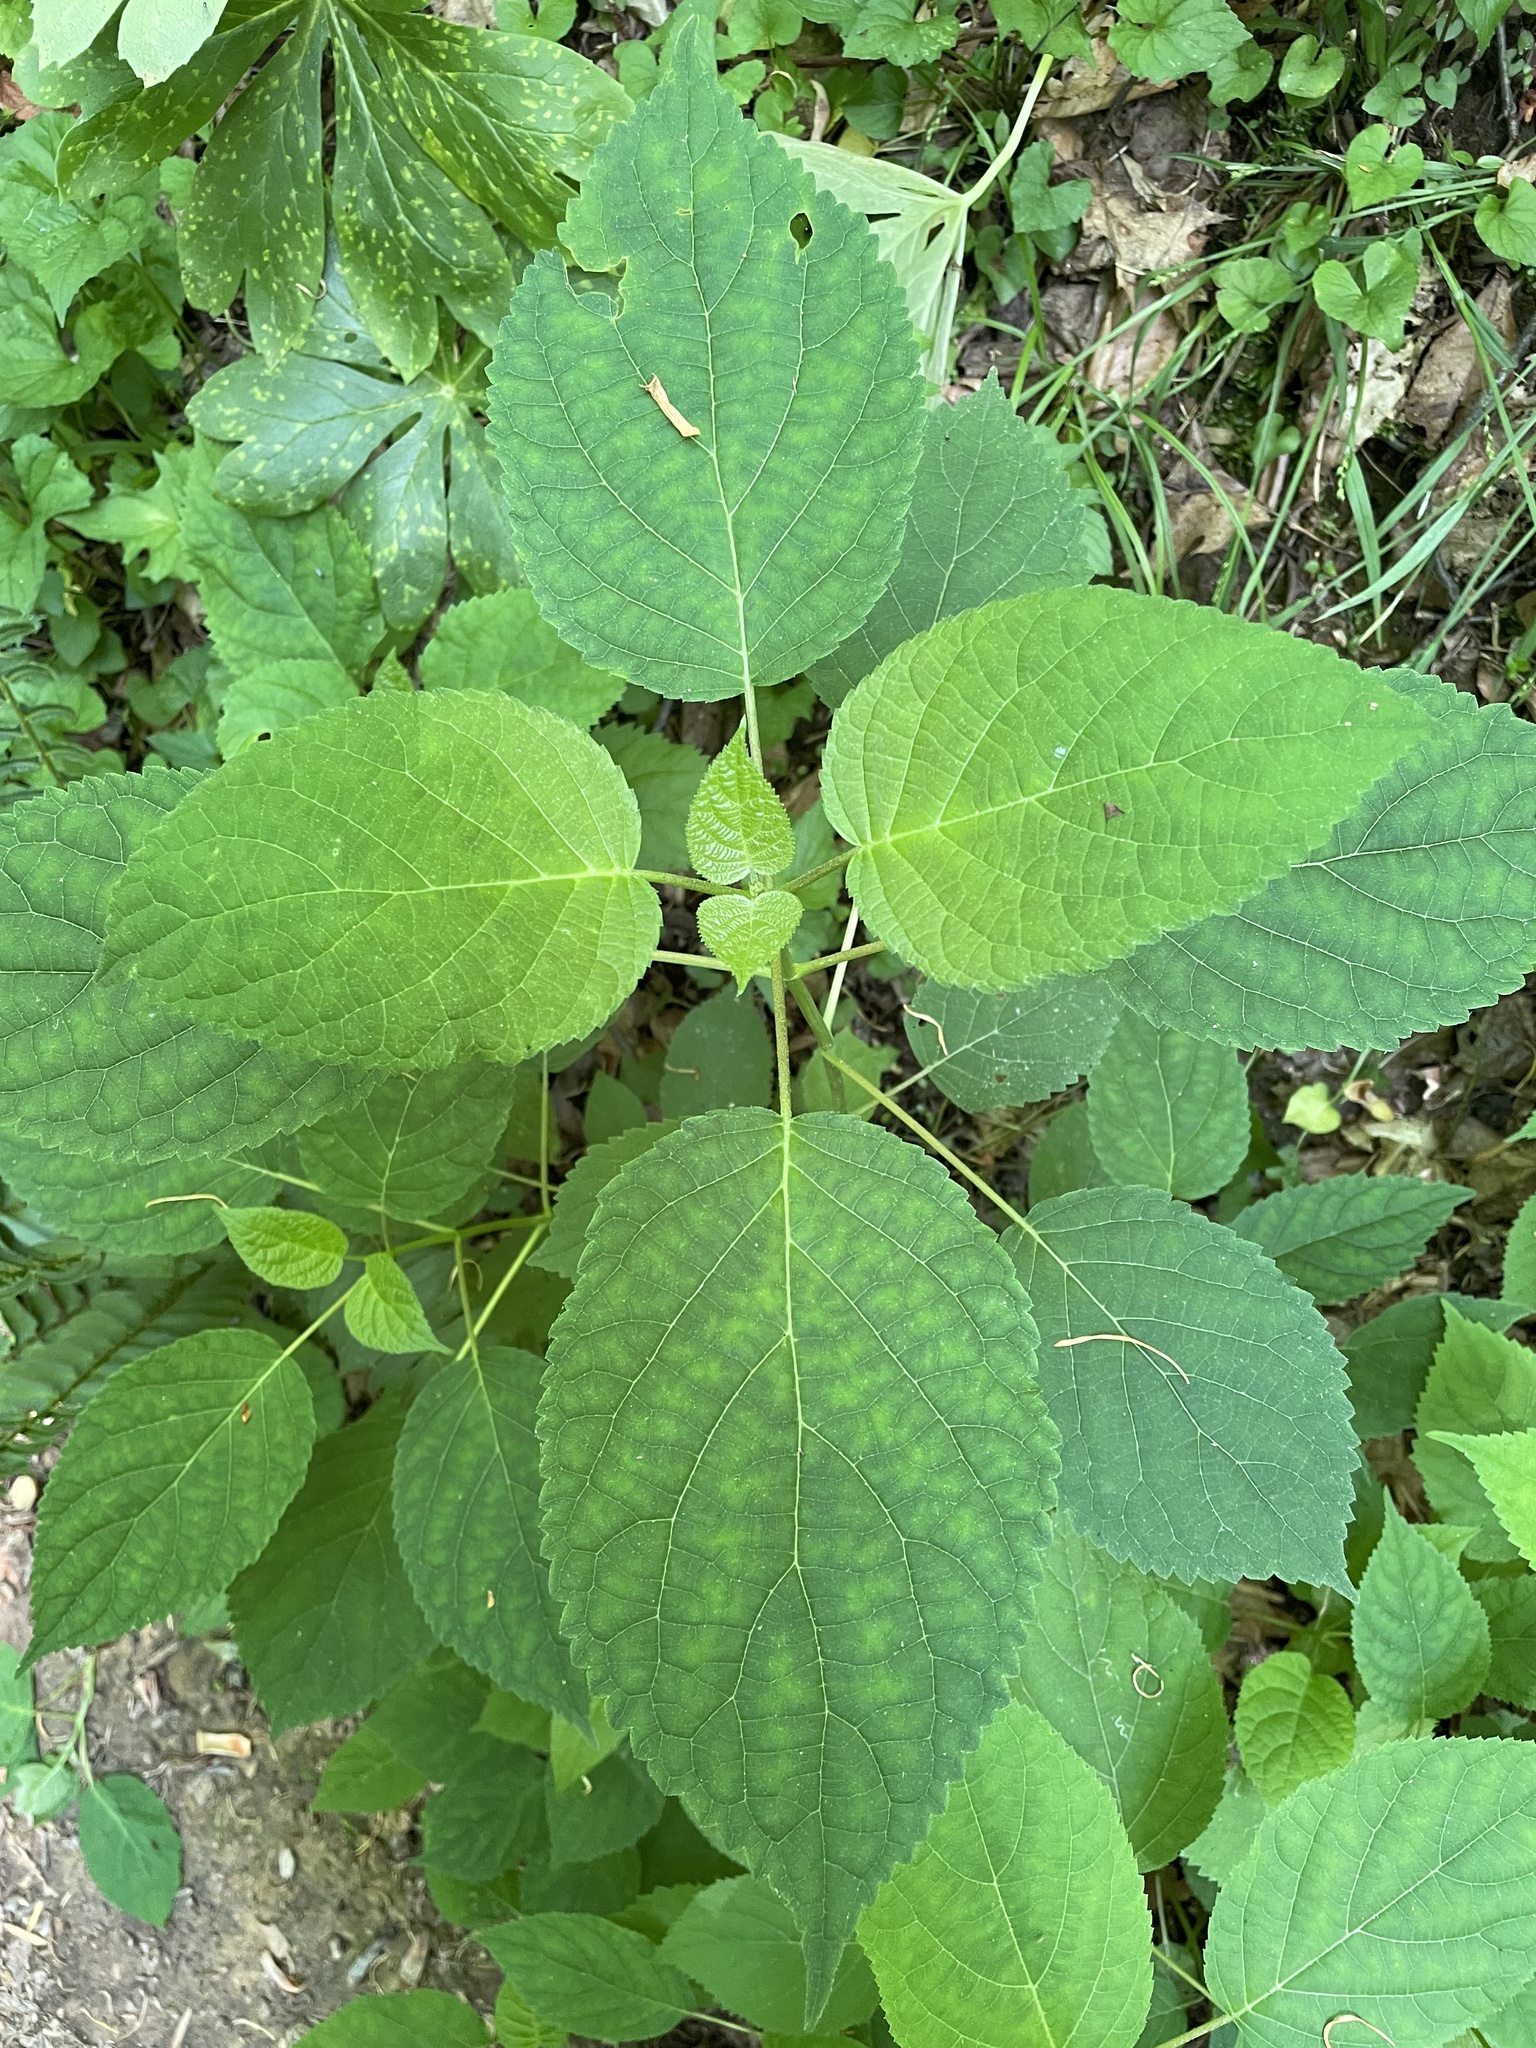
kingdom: Plantae
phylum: Tracheophyta
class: Magnoliopsida
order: Rosales
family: Urticaceae
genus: Laportea
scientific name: Laportea canadensis
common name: Canada nettle
